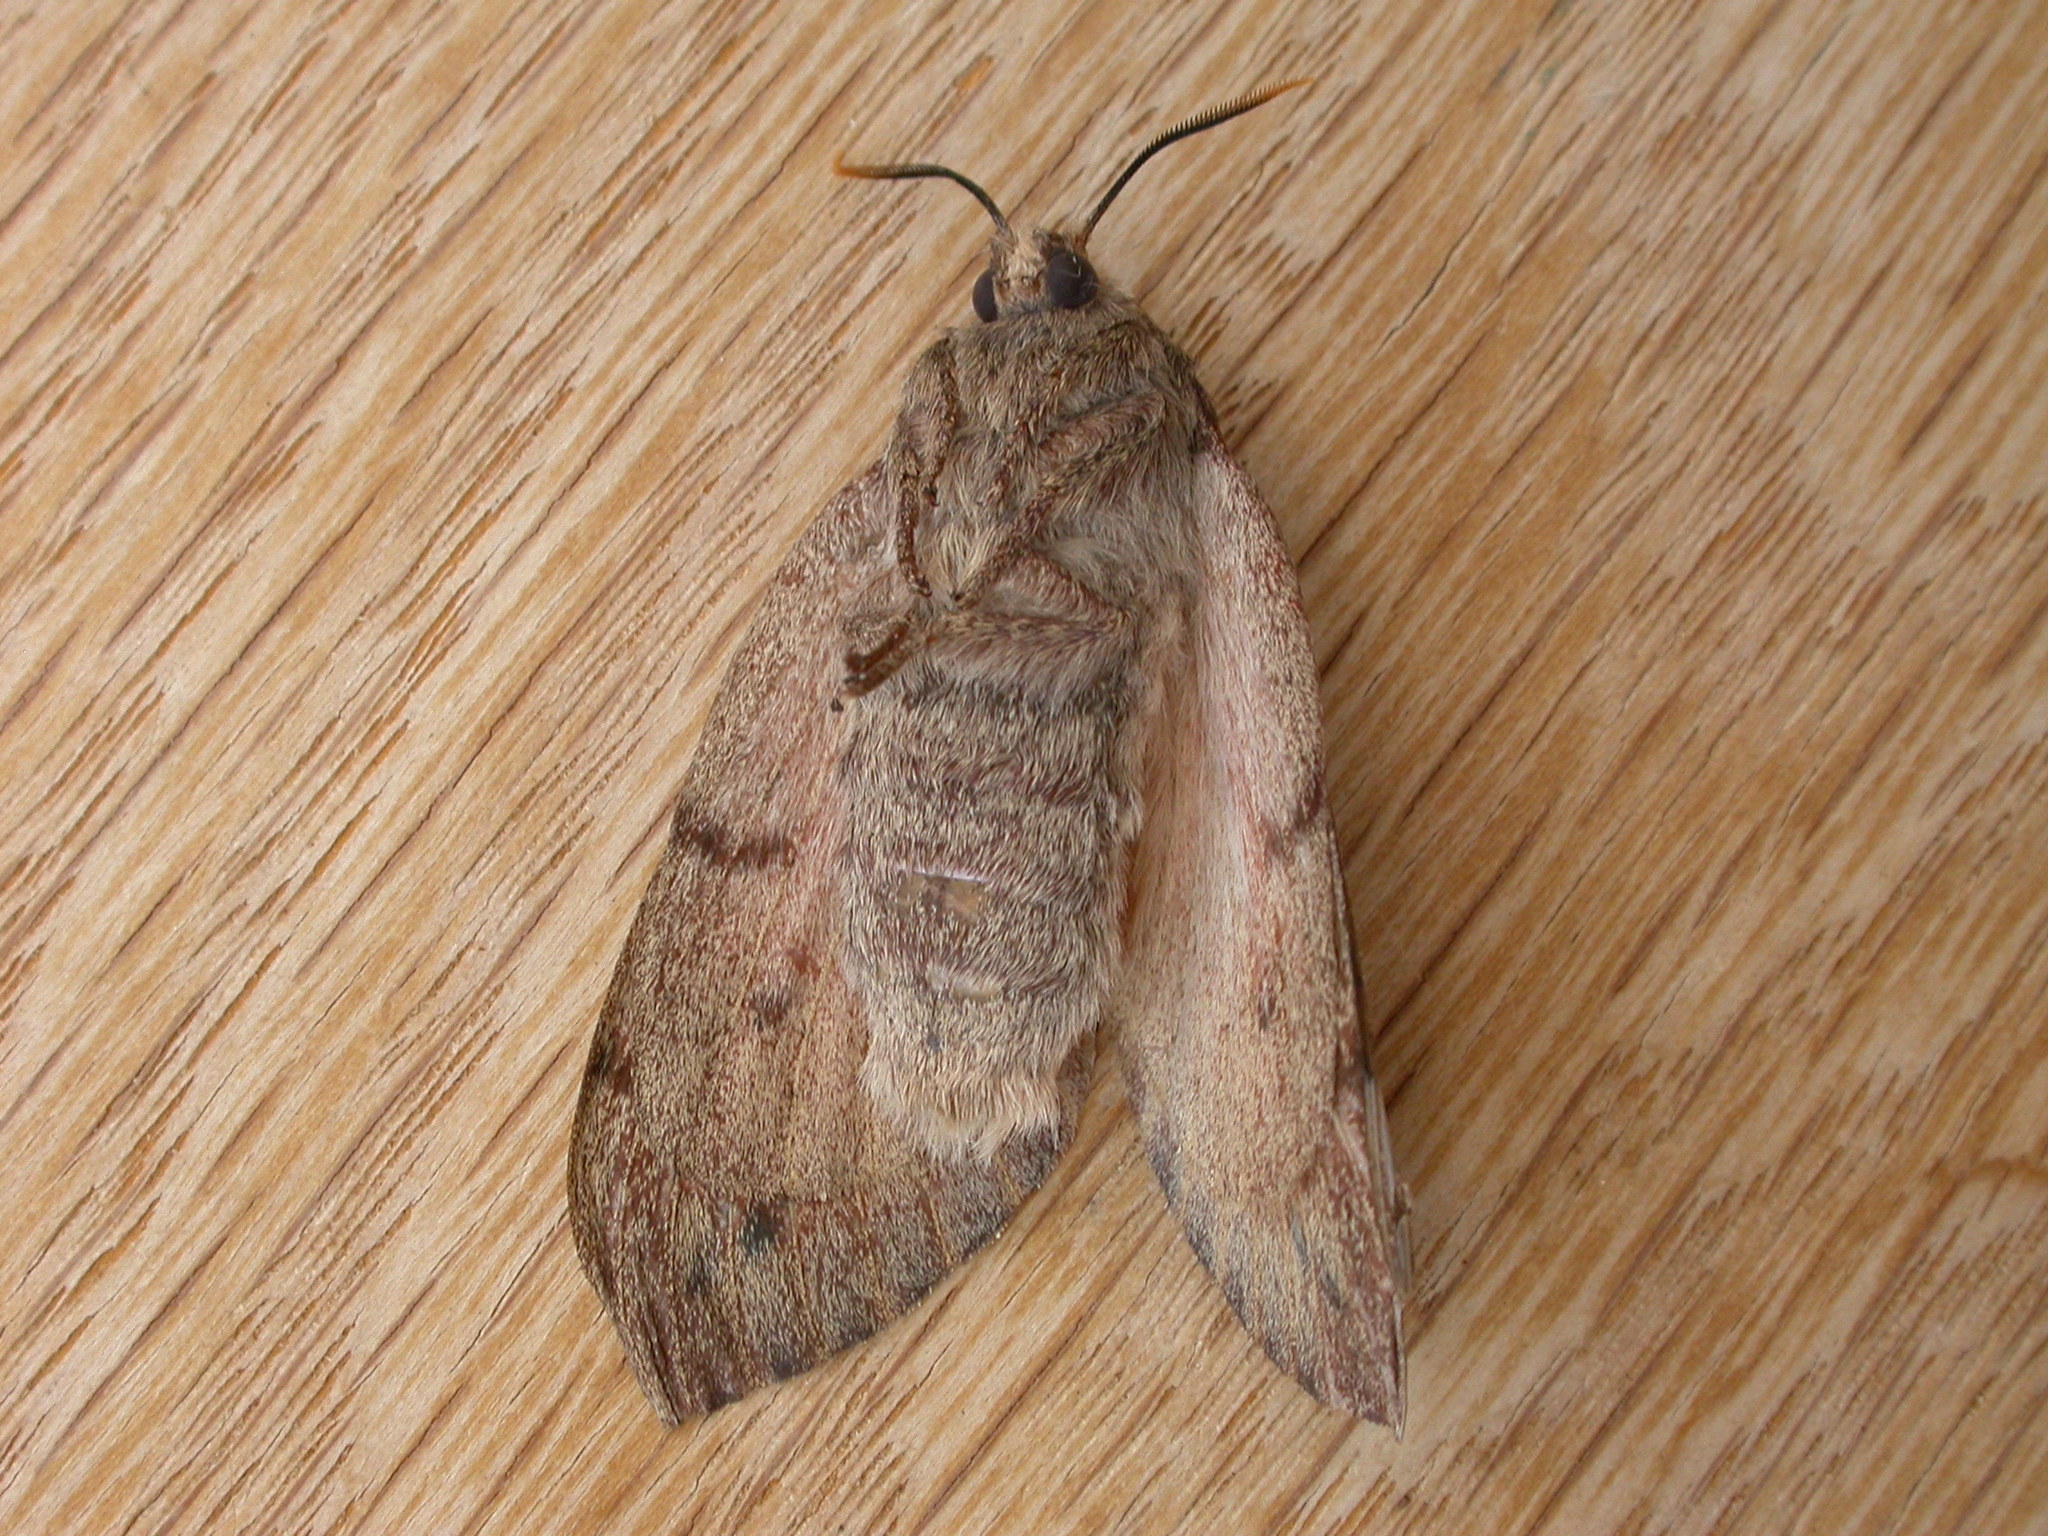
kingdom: Animalia
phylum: Arthropoda
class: Insecta
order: Lepidoptera
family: Lasiocampidae
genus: Entometa
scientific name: Entometa apicalis
